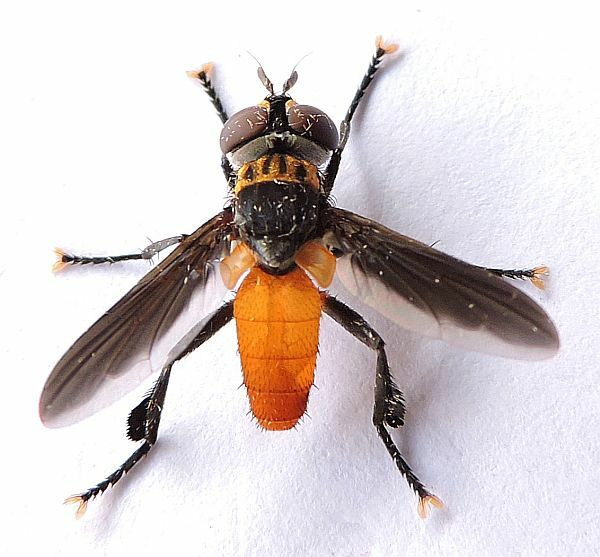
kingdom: Animalia
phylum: Arthropoda
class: Insecta
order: Diptera
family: Tachinidae
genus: Trichopoda
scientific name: Trichopoda pennipes
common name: Tachinid fly
